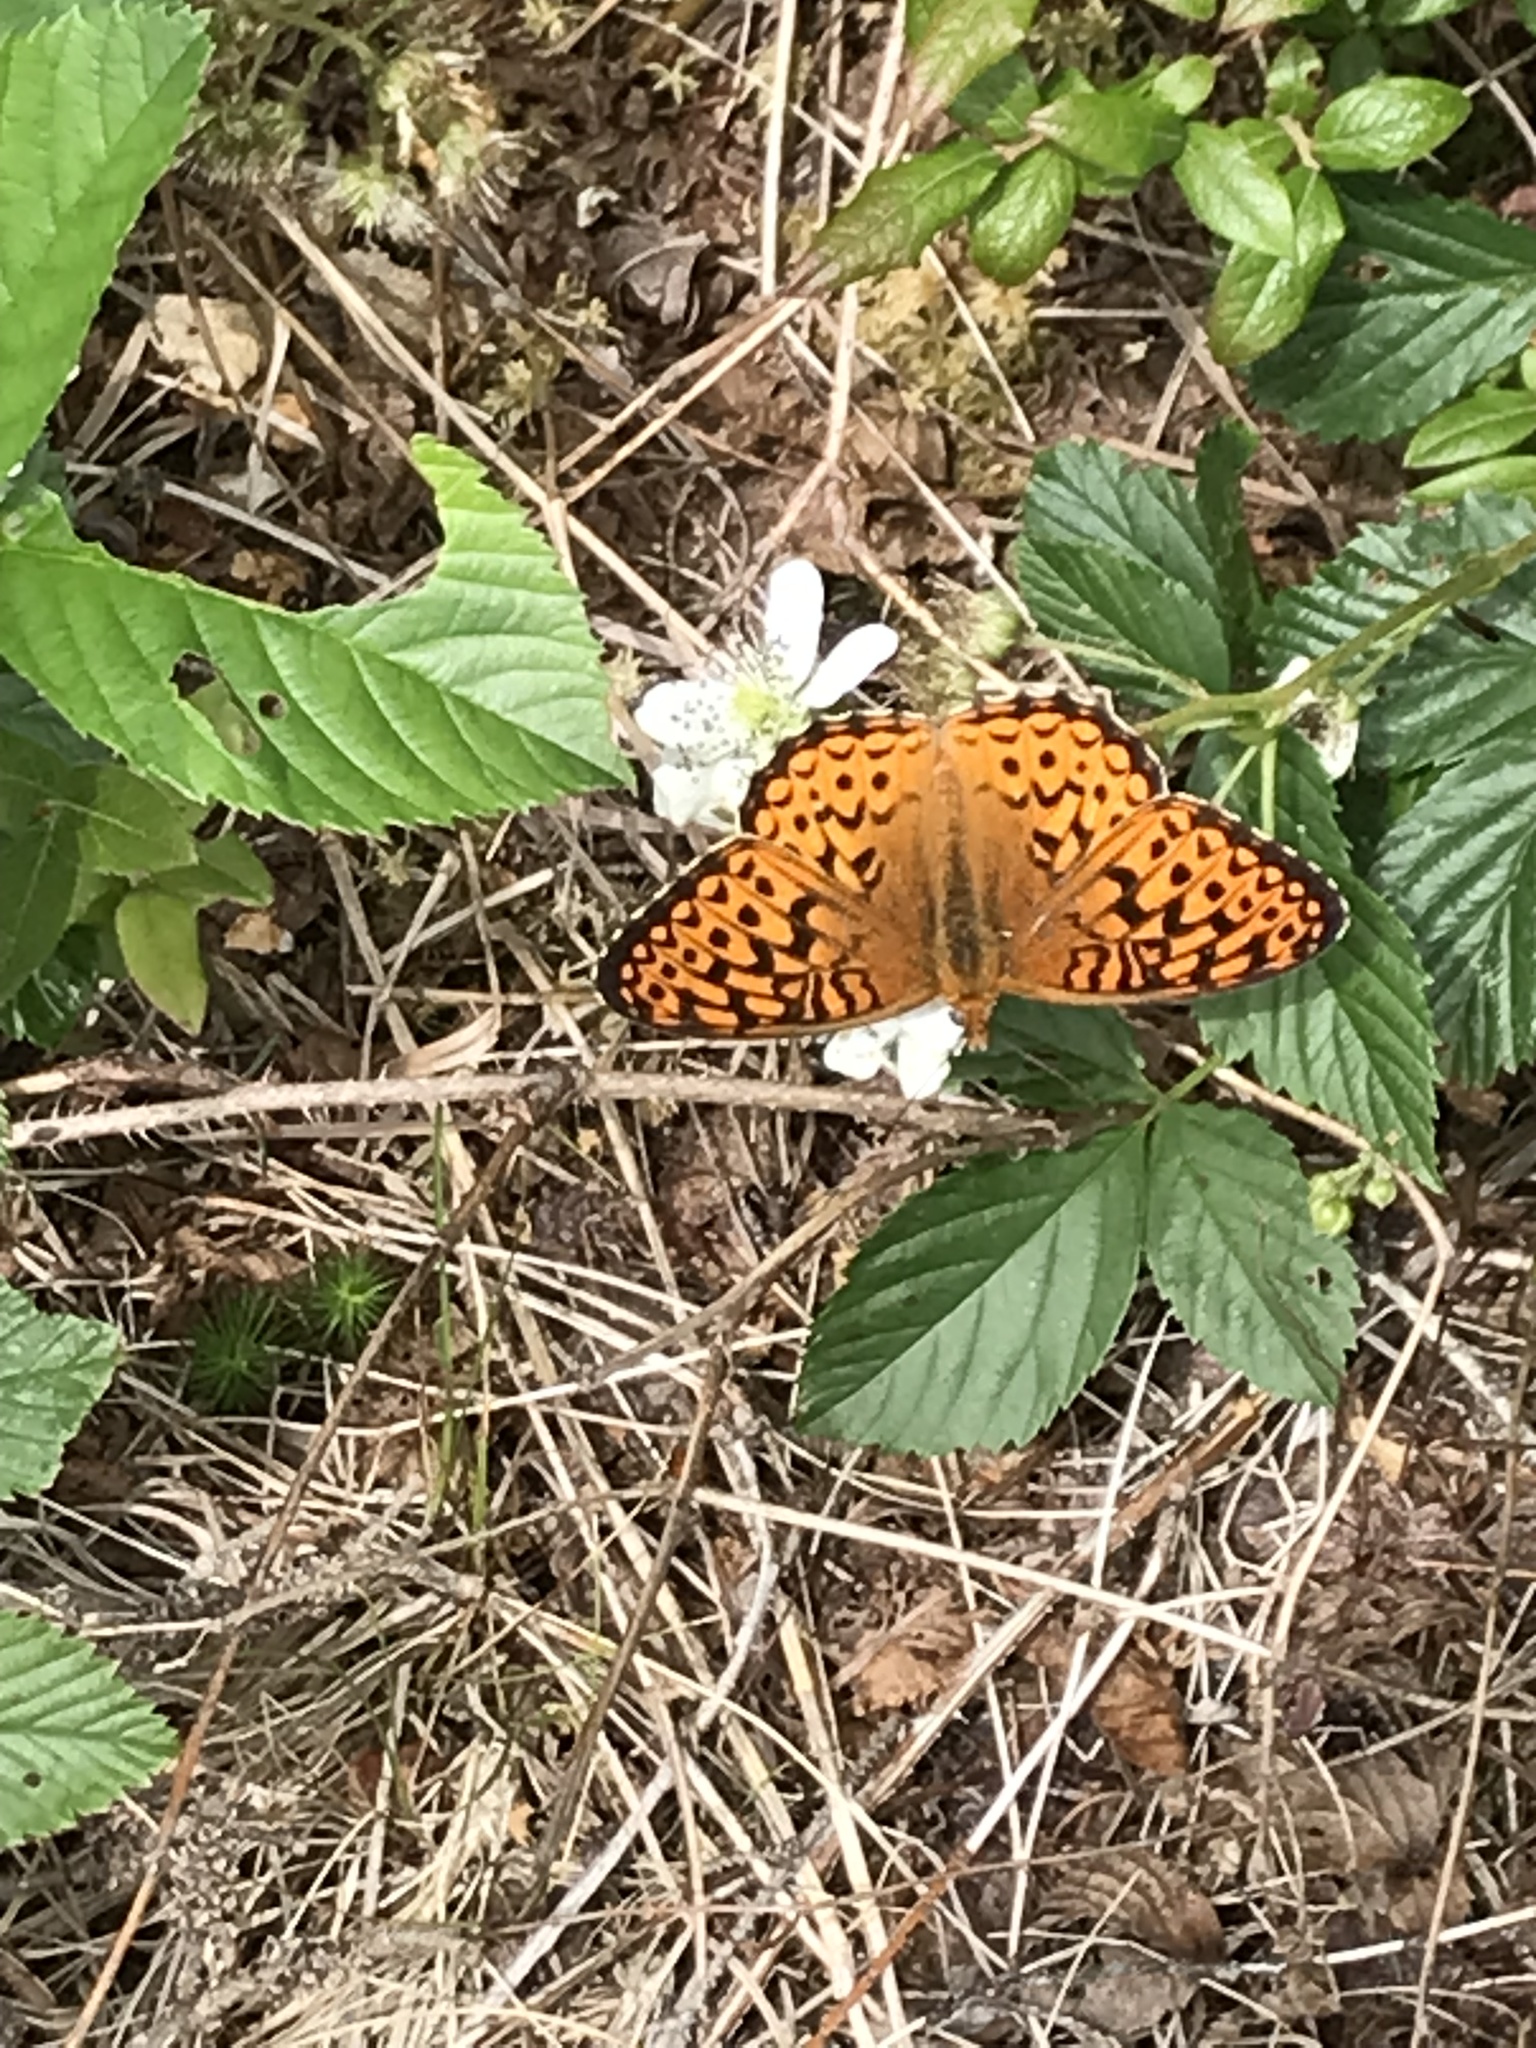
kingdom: Animalia
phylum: Arthropoda
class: Insecta
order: Lepidoptera
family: Nymphalidae
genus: Speyeria
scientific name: Speyeria atlantis
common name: Atlantis fritillary
